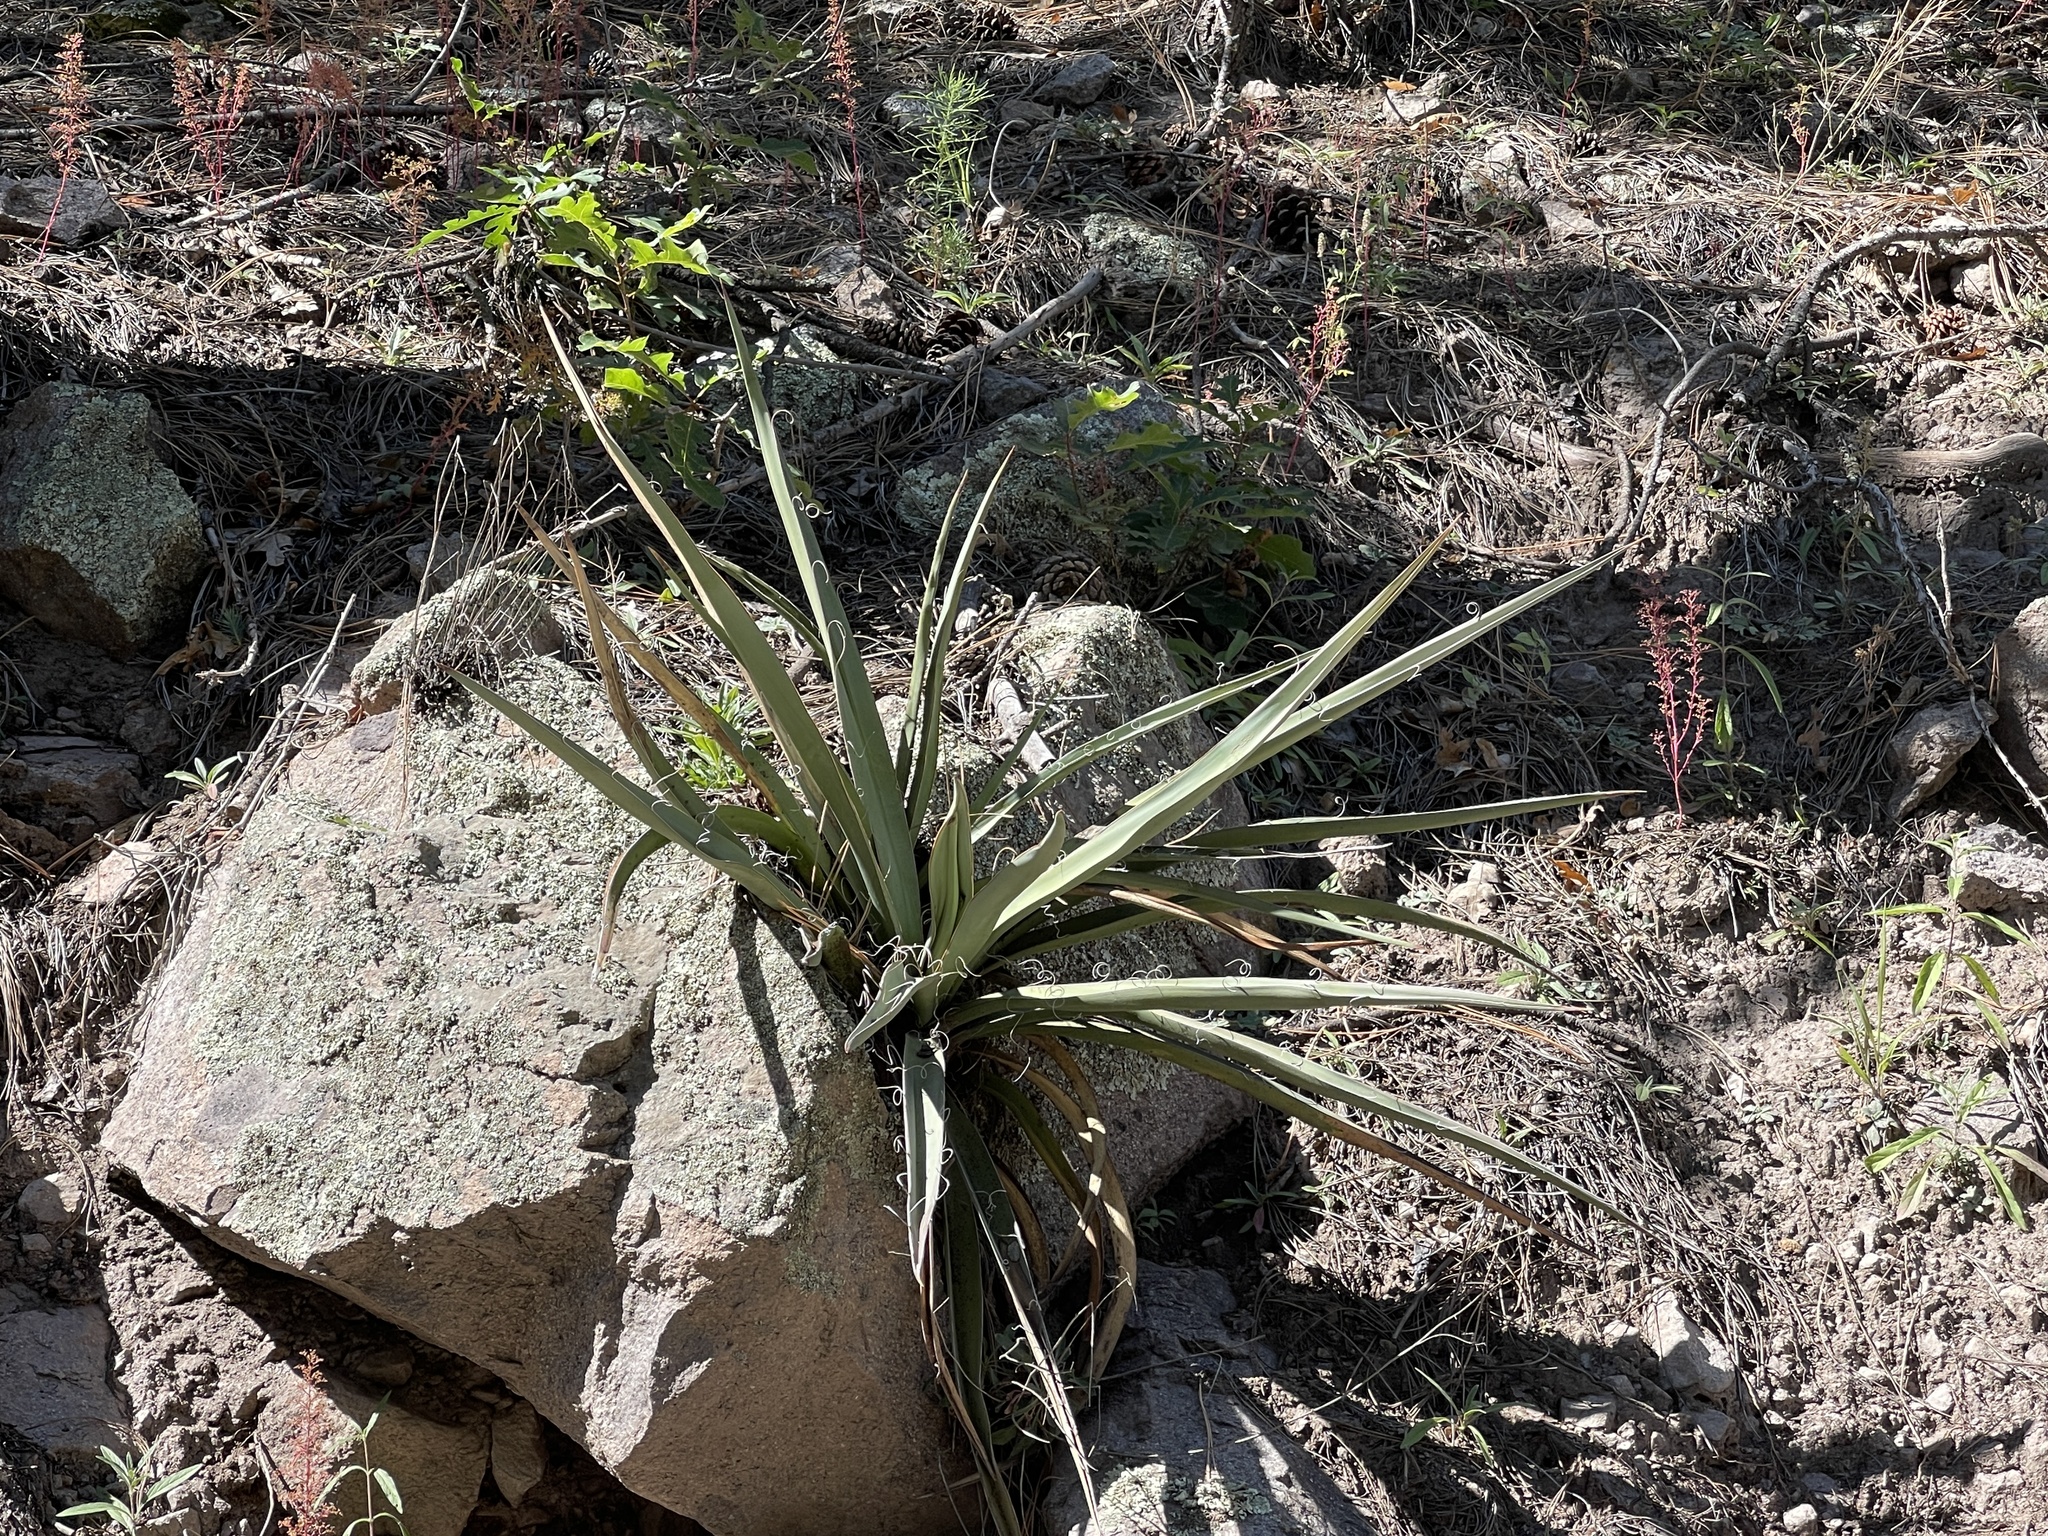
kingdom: Plantae
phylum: Tracheophyta
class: Liliopsida
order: Asparagales
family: Asparagaceae
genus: Yucca
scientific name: Yucca baccata
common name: Banana yucca
